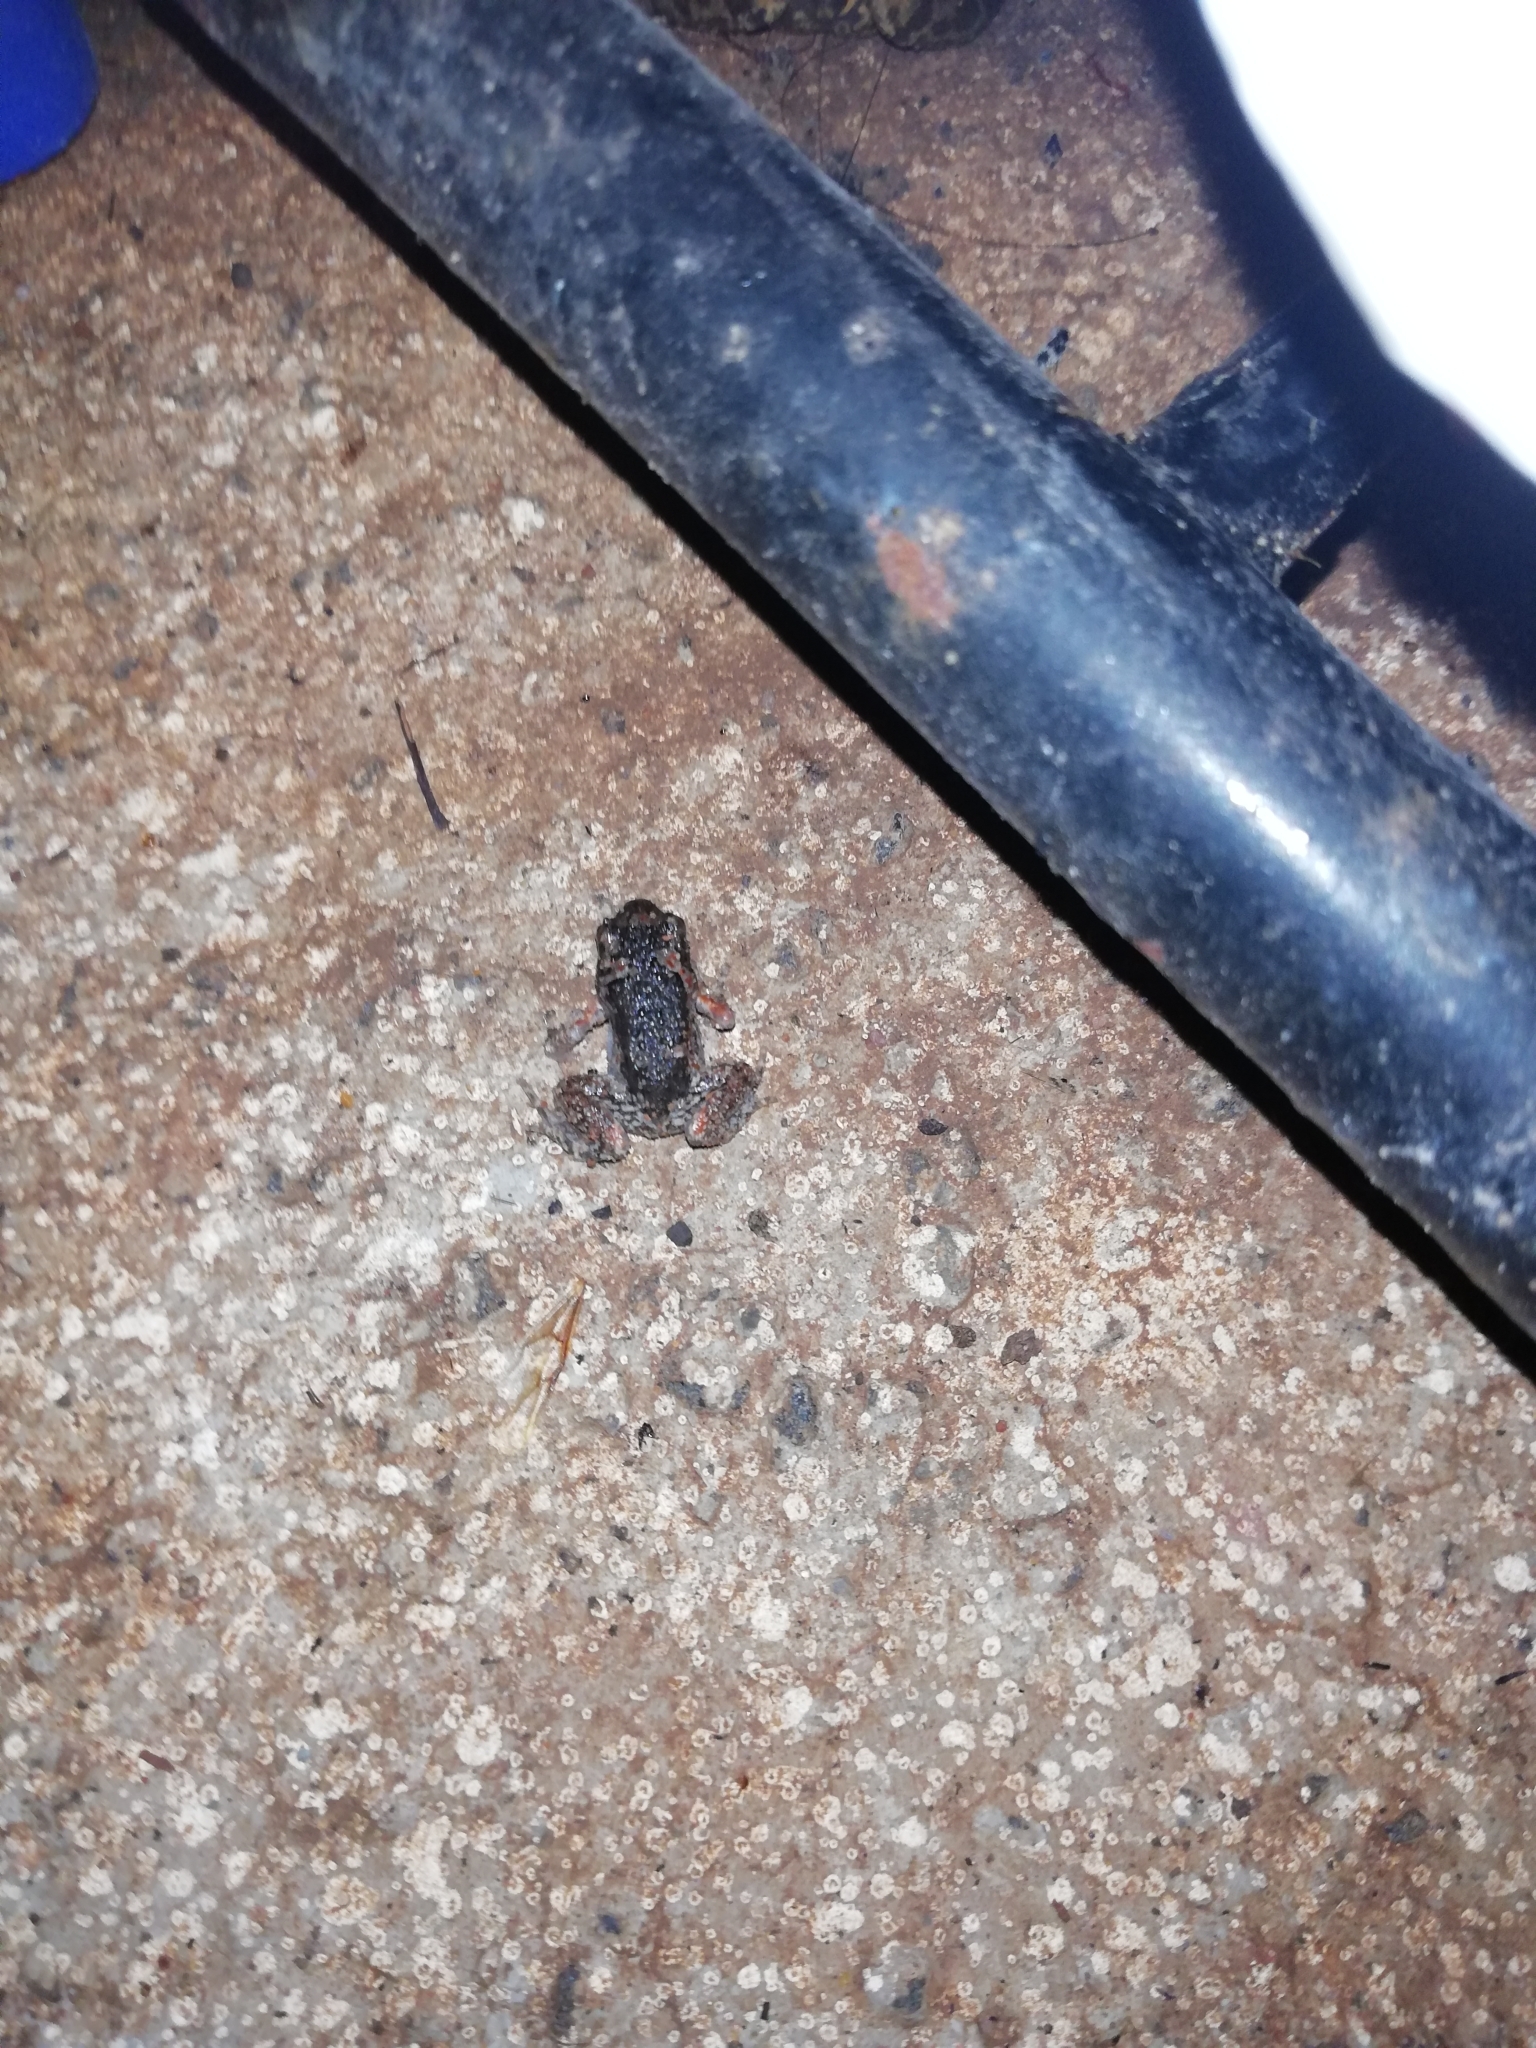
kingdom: Animalia
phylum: Chordata
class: Amphibia
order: Anura
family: Microhylidae
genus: Uperodon
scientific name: Uperodon taprobanicus
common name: Ceylon kaloula
